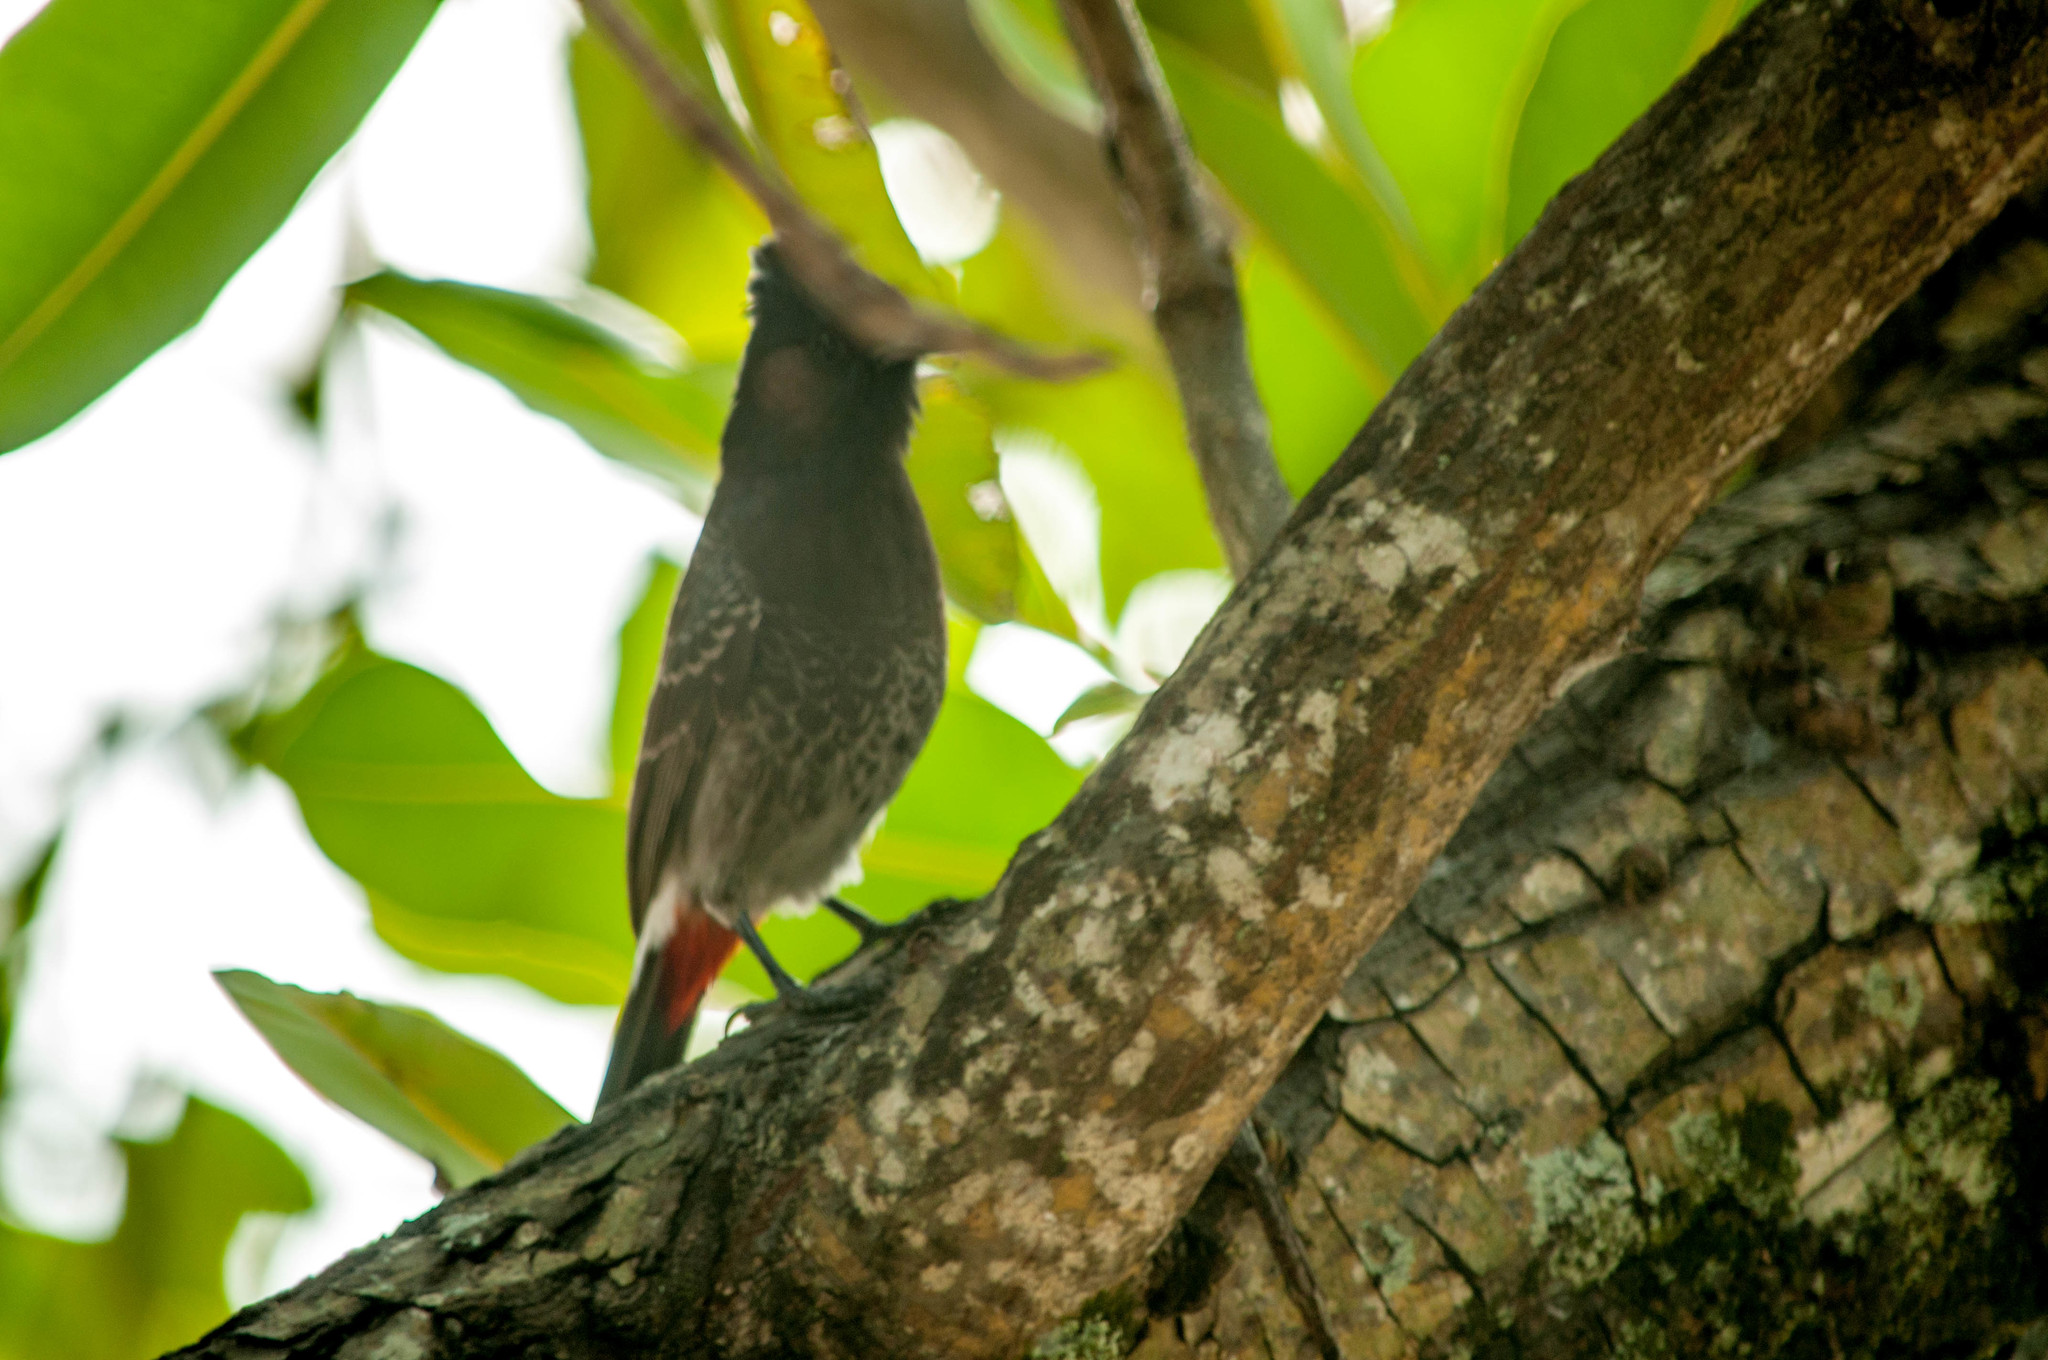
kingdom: Animalia
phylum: Chordata
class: Aves
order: Passeriformes
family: Pycnonotidae
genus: Pycnonotus
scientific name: Pycnonotus cafer
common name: Red-vented bulbul
